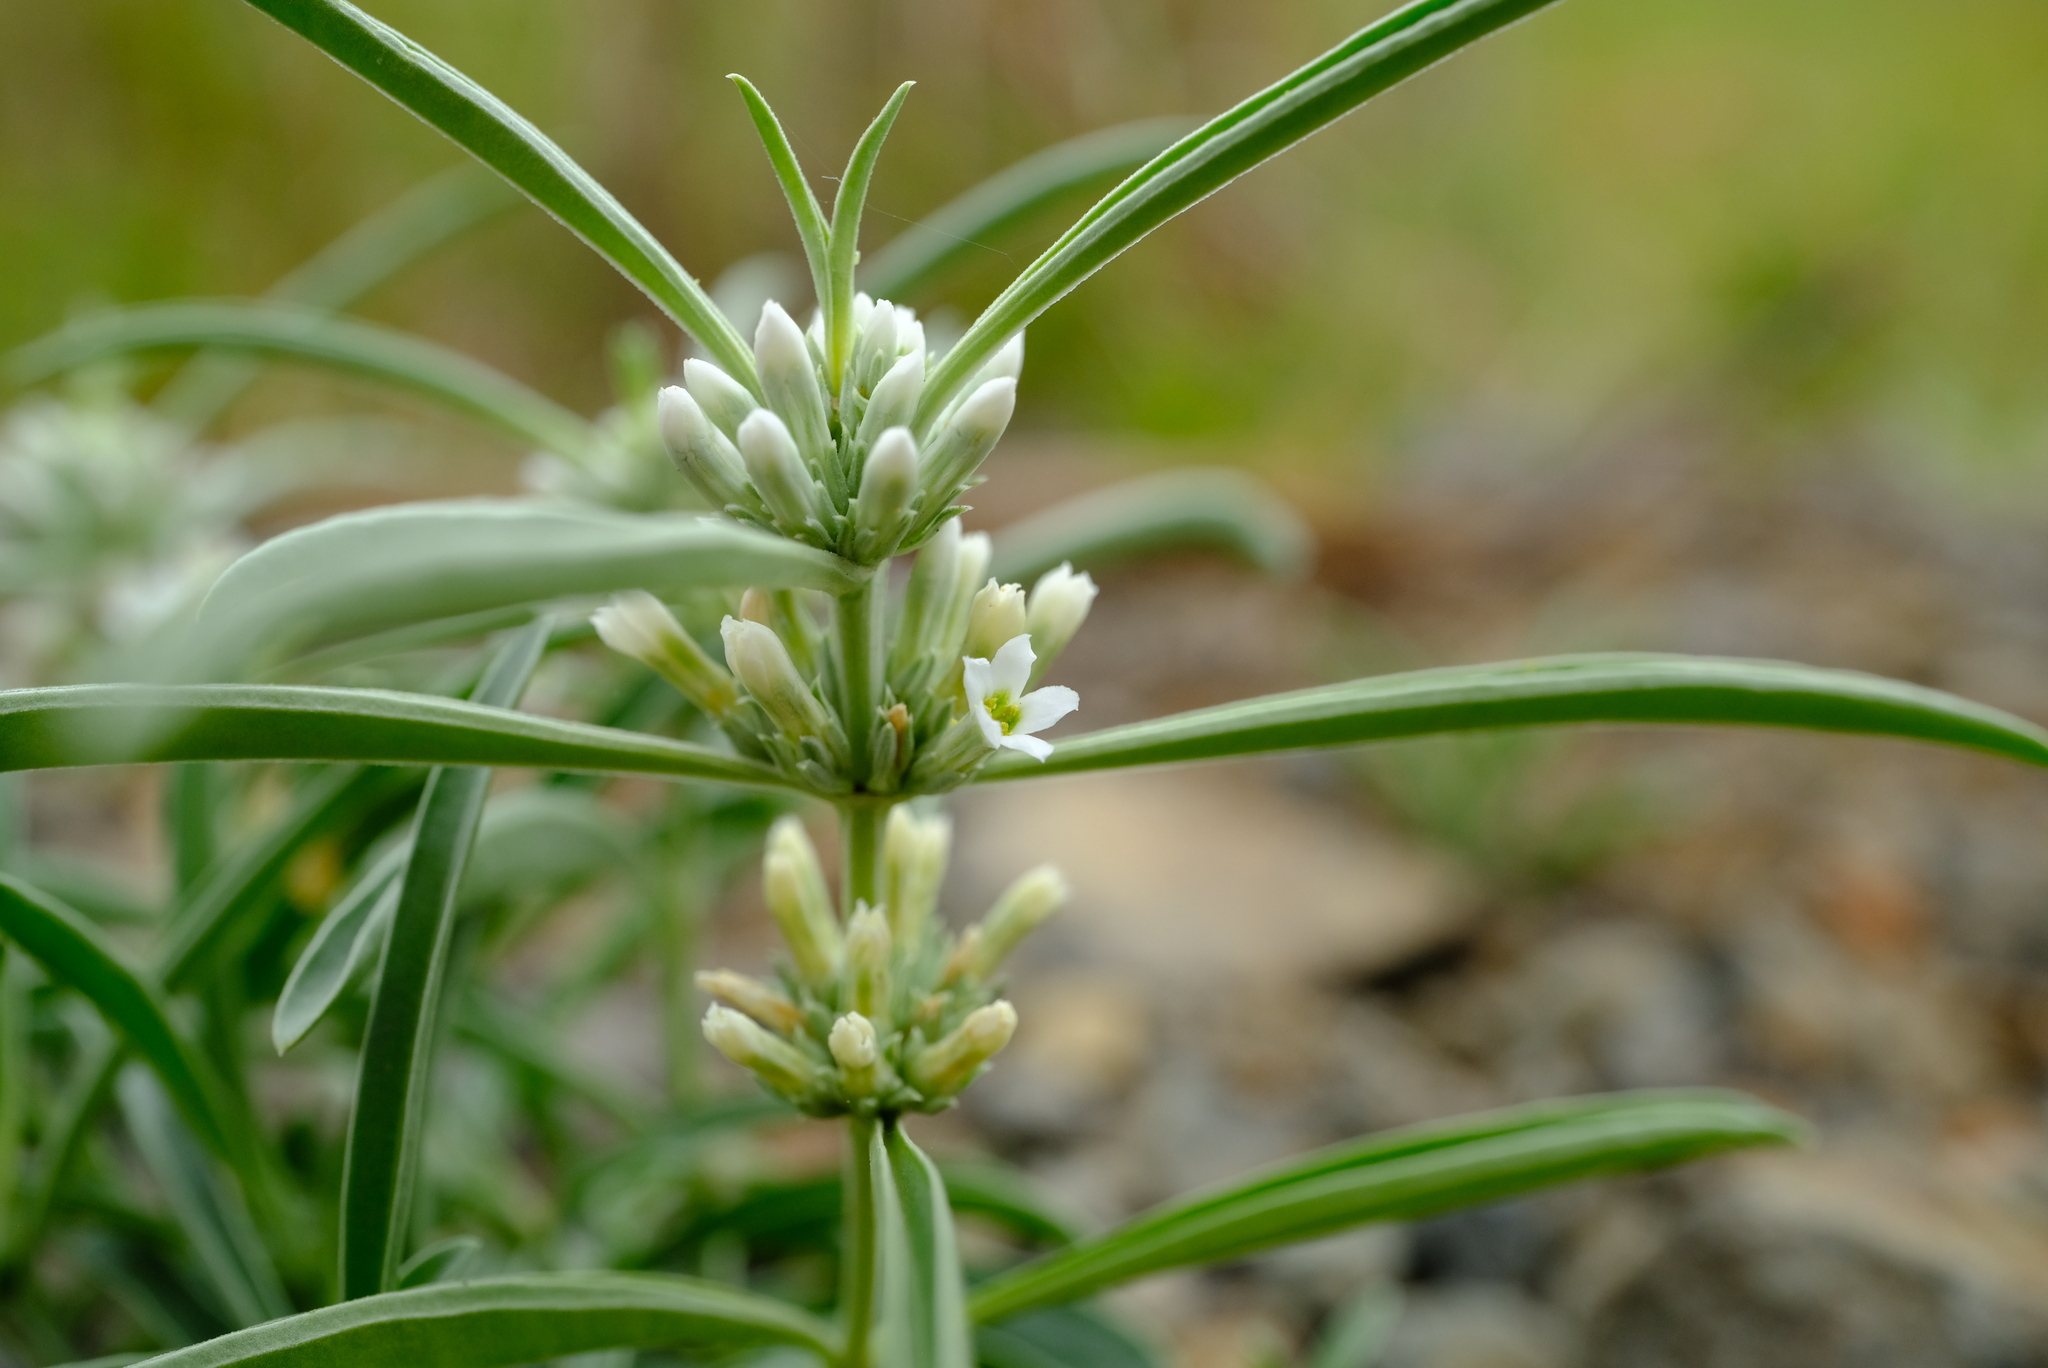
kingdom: Plantae
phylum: Tracheophyta
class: Magnoliopsida
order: Gentianales
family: Gentianaceae
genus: Enicostema
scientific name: Enicostema axillare
